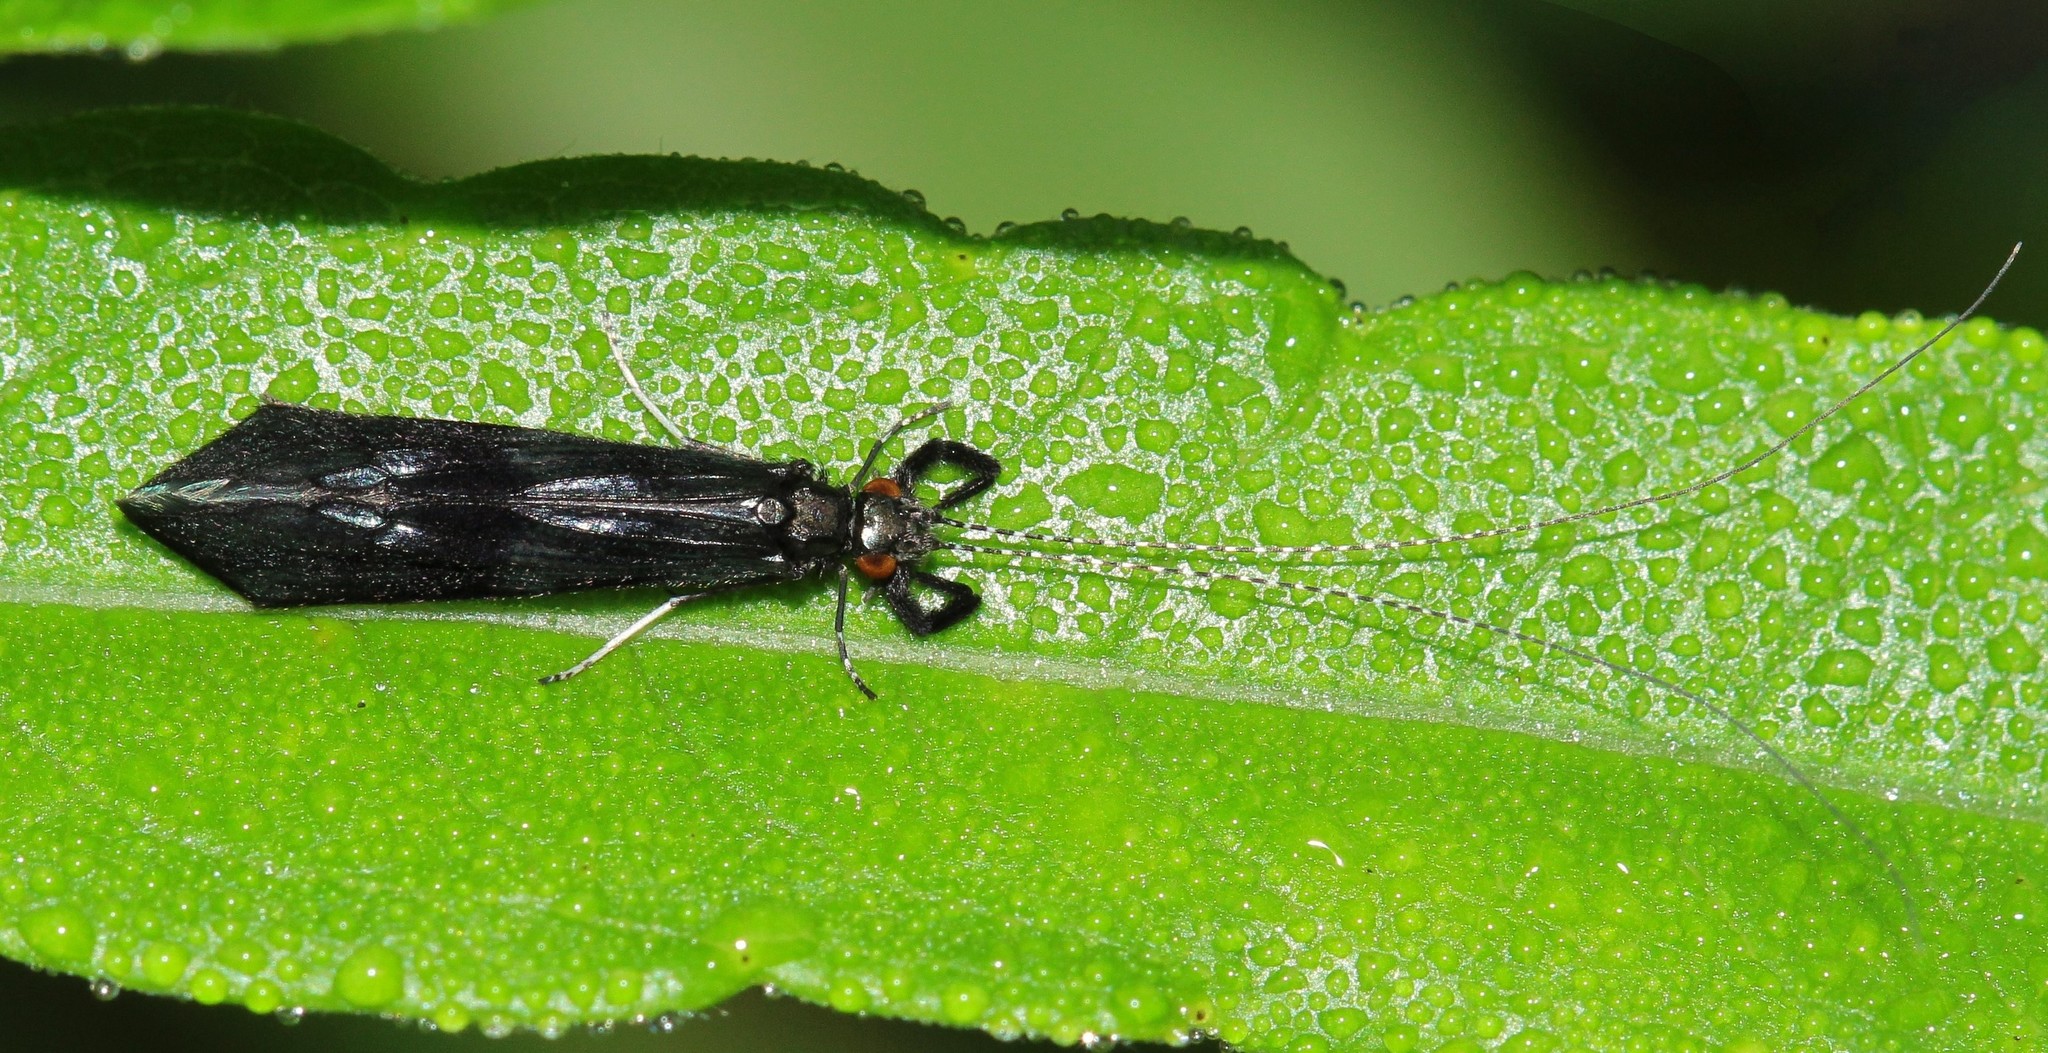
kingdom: Animalia
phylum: Arthropoda
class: Insecta
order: Trichoptera
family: Leptoceridae
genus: Mystacides
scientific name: Mystacides azureus
